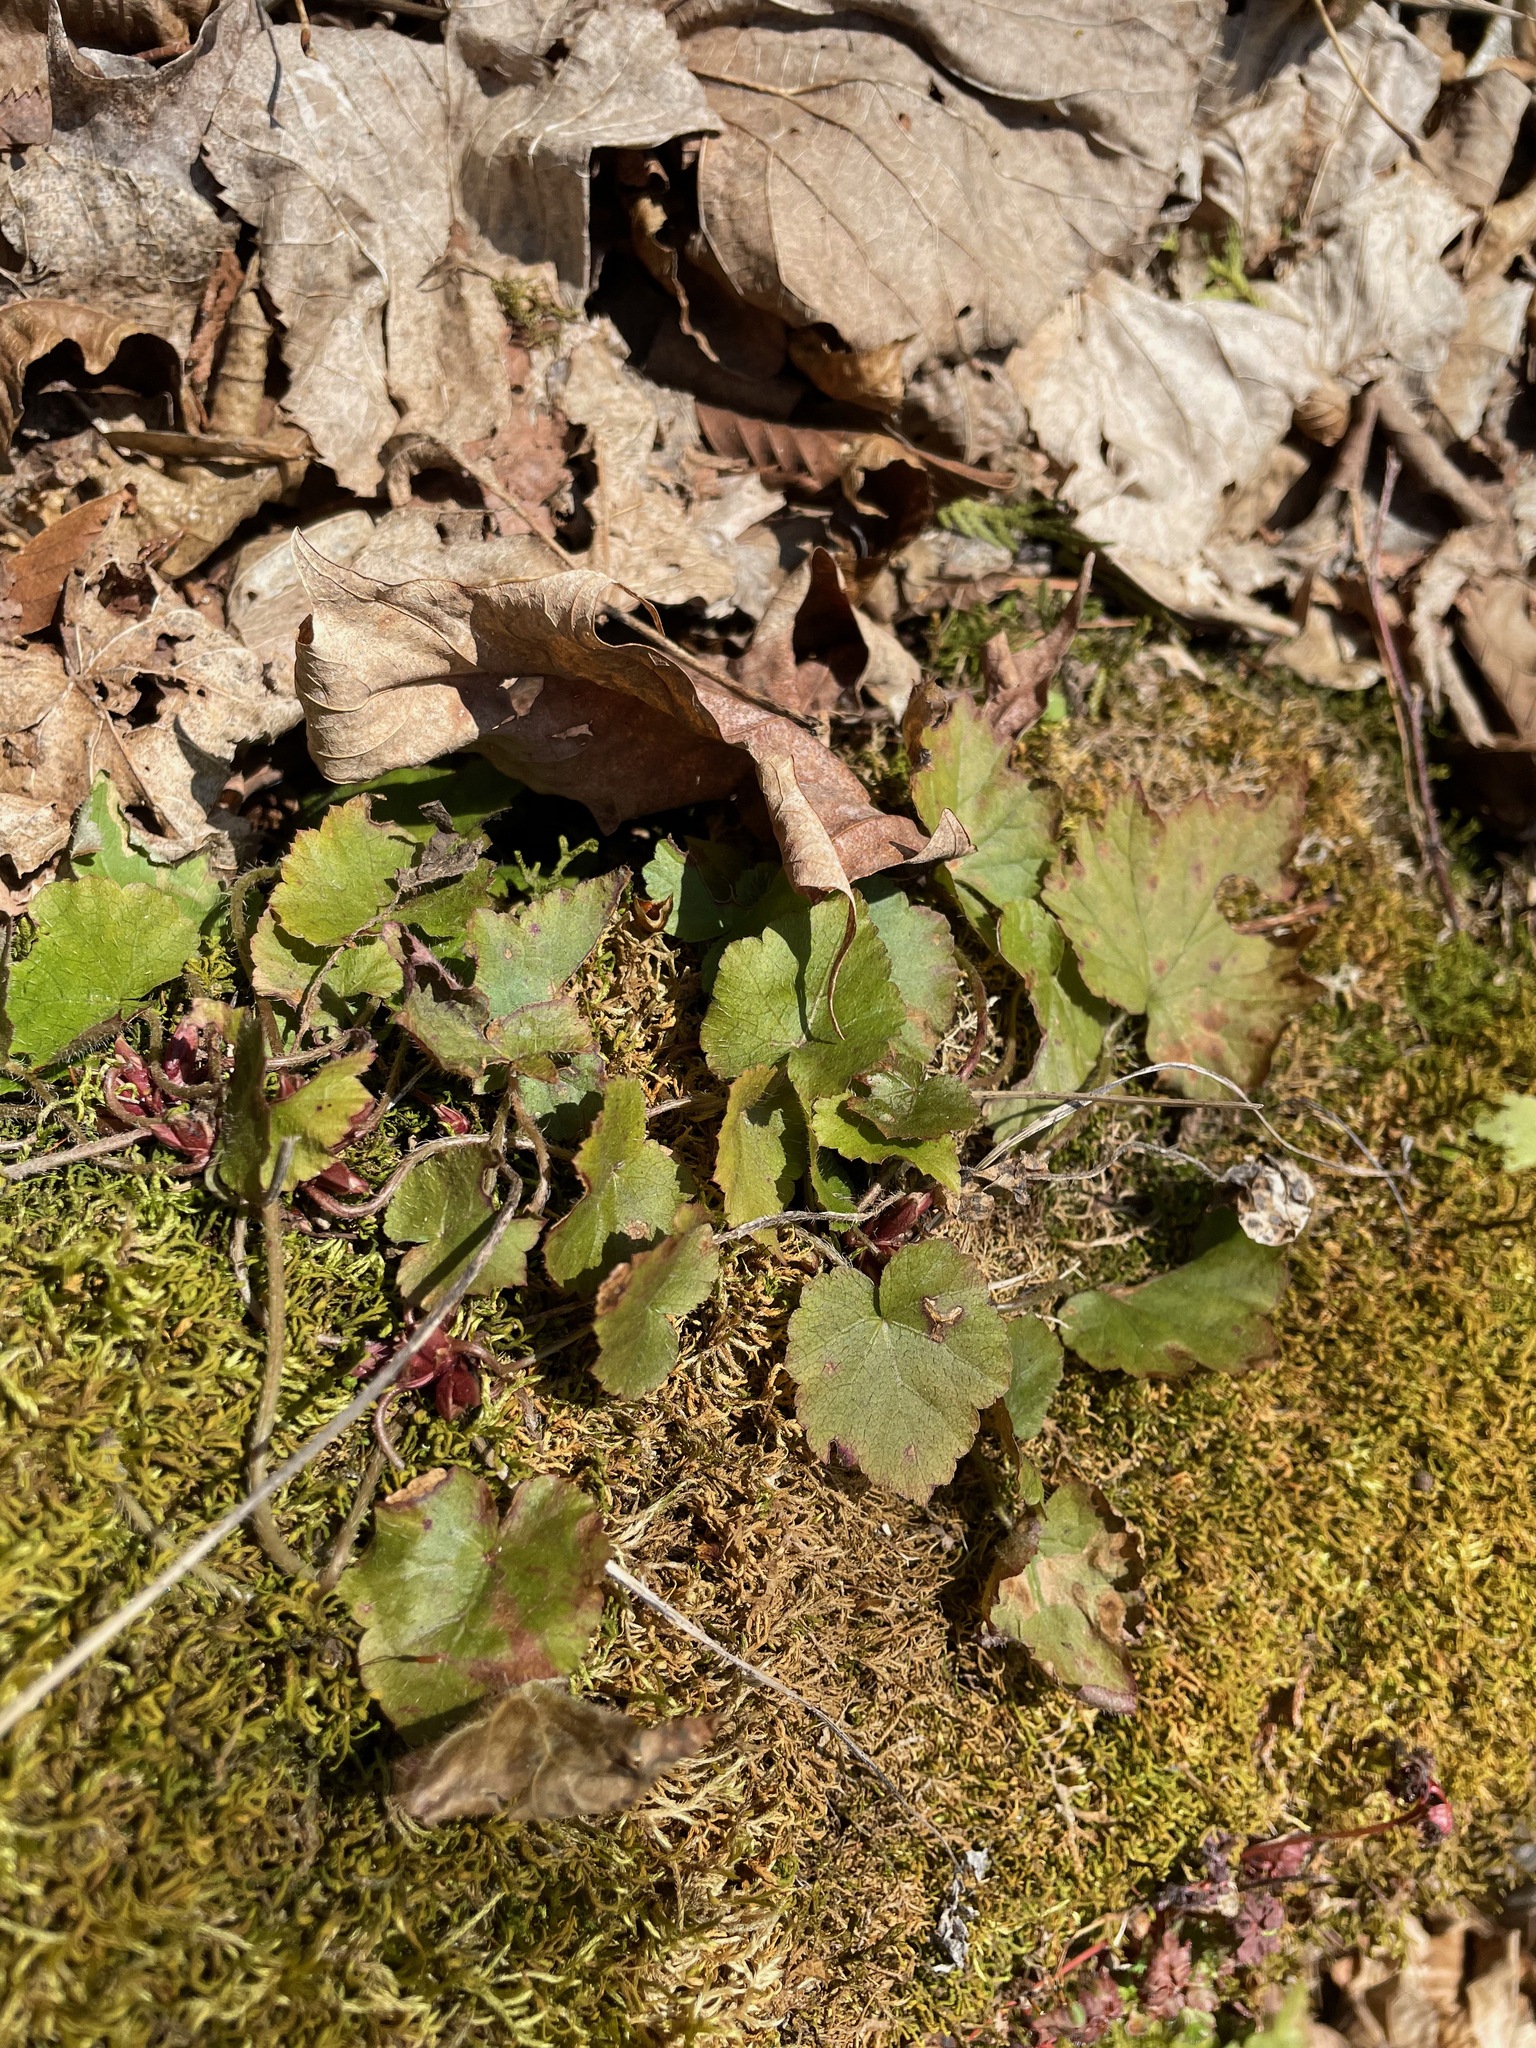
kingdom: Plantae
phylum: Tracheophyta
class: Magnoliopsida
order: Saxifragales
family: Saxifragaceae
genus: Mitella
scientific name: Mitella diphylla
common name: Coolwort
